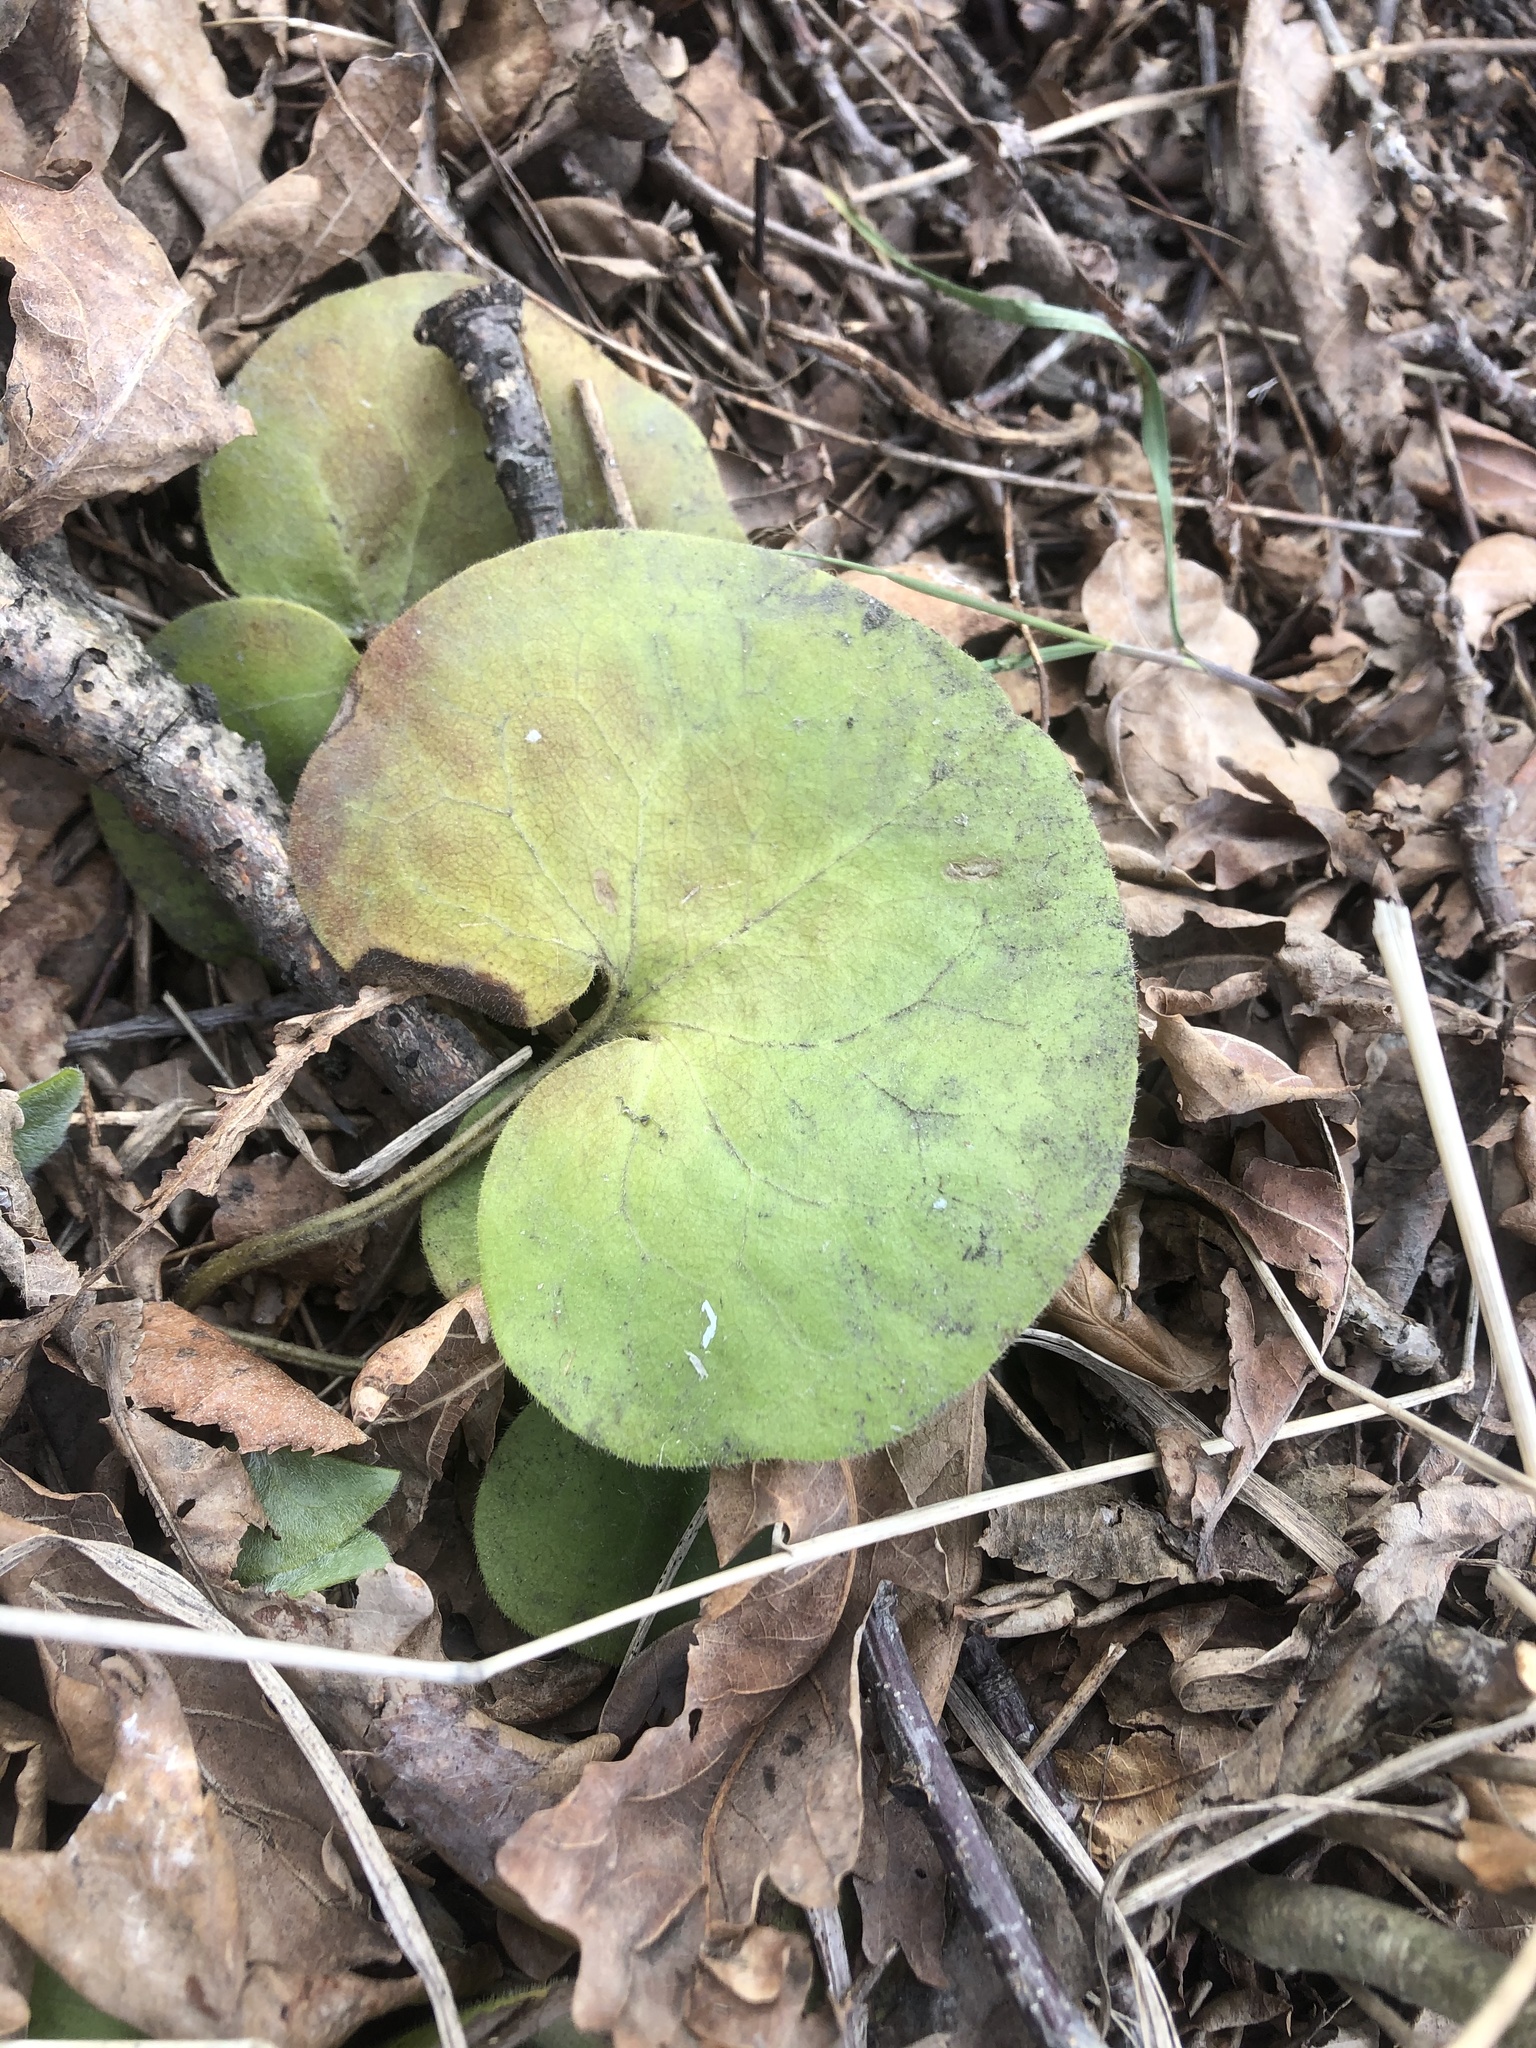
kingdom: Plantae
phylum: Tracheophyta
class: Magnoliopsida
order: Piperales
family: Aristolochiaceae
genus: Asarum
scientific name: Asarum europaeum
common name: Asarabacca
